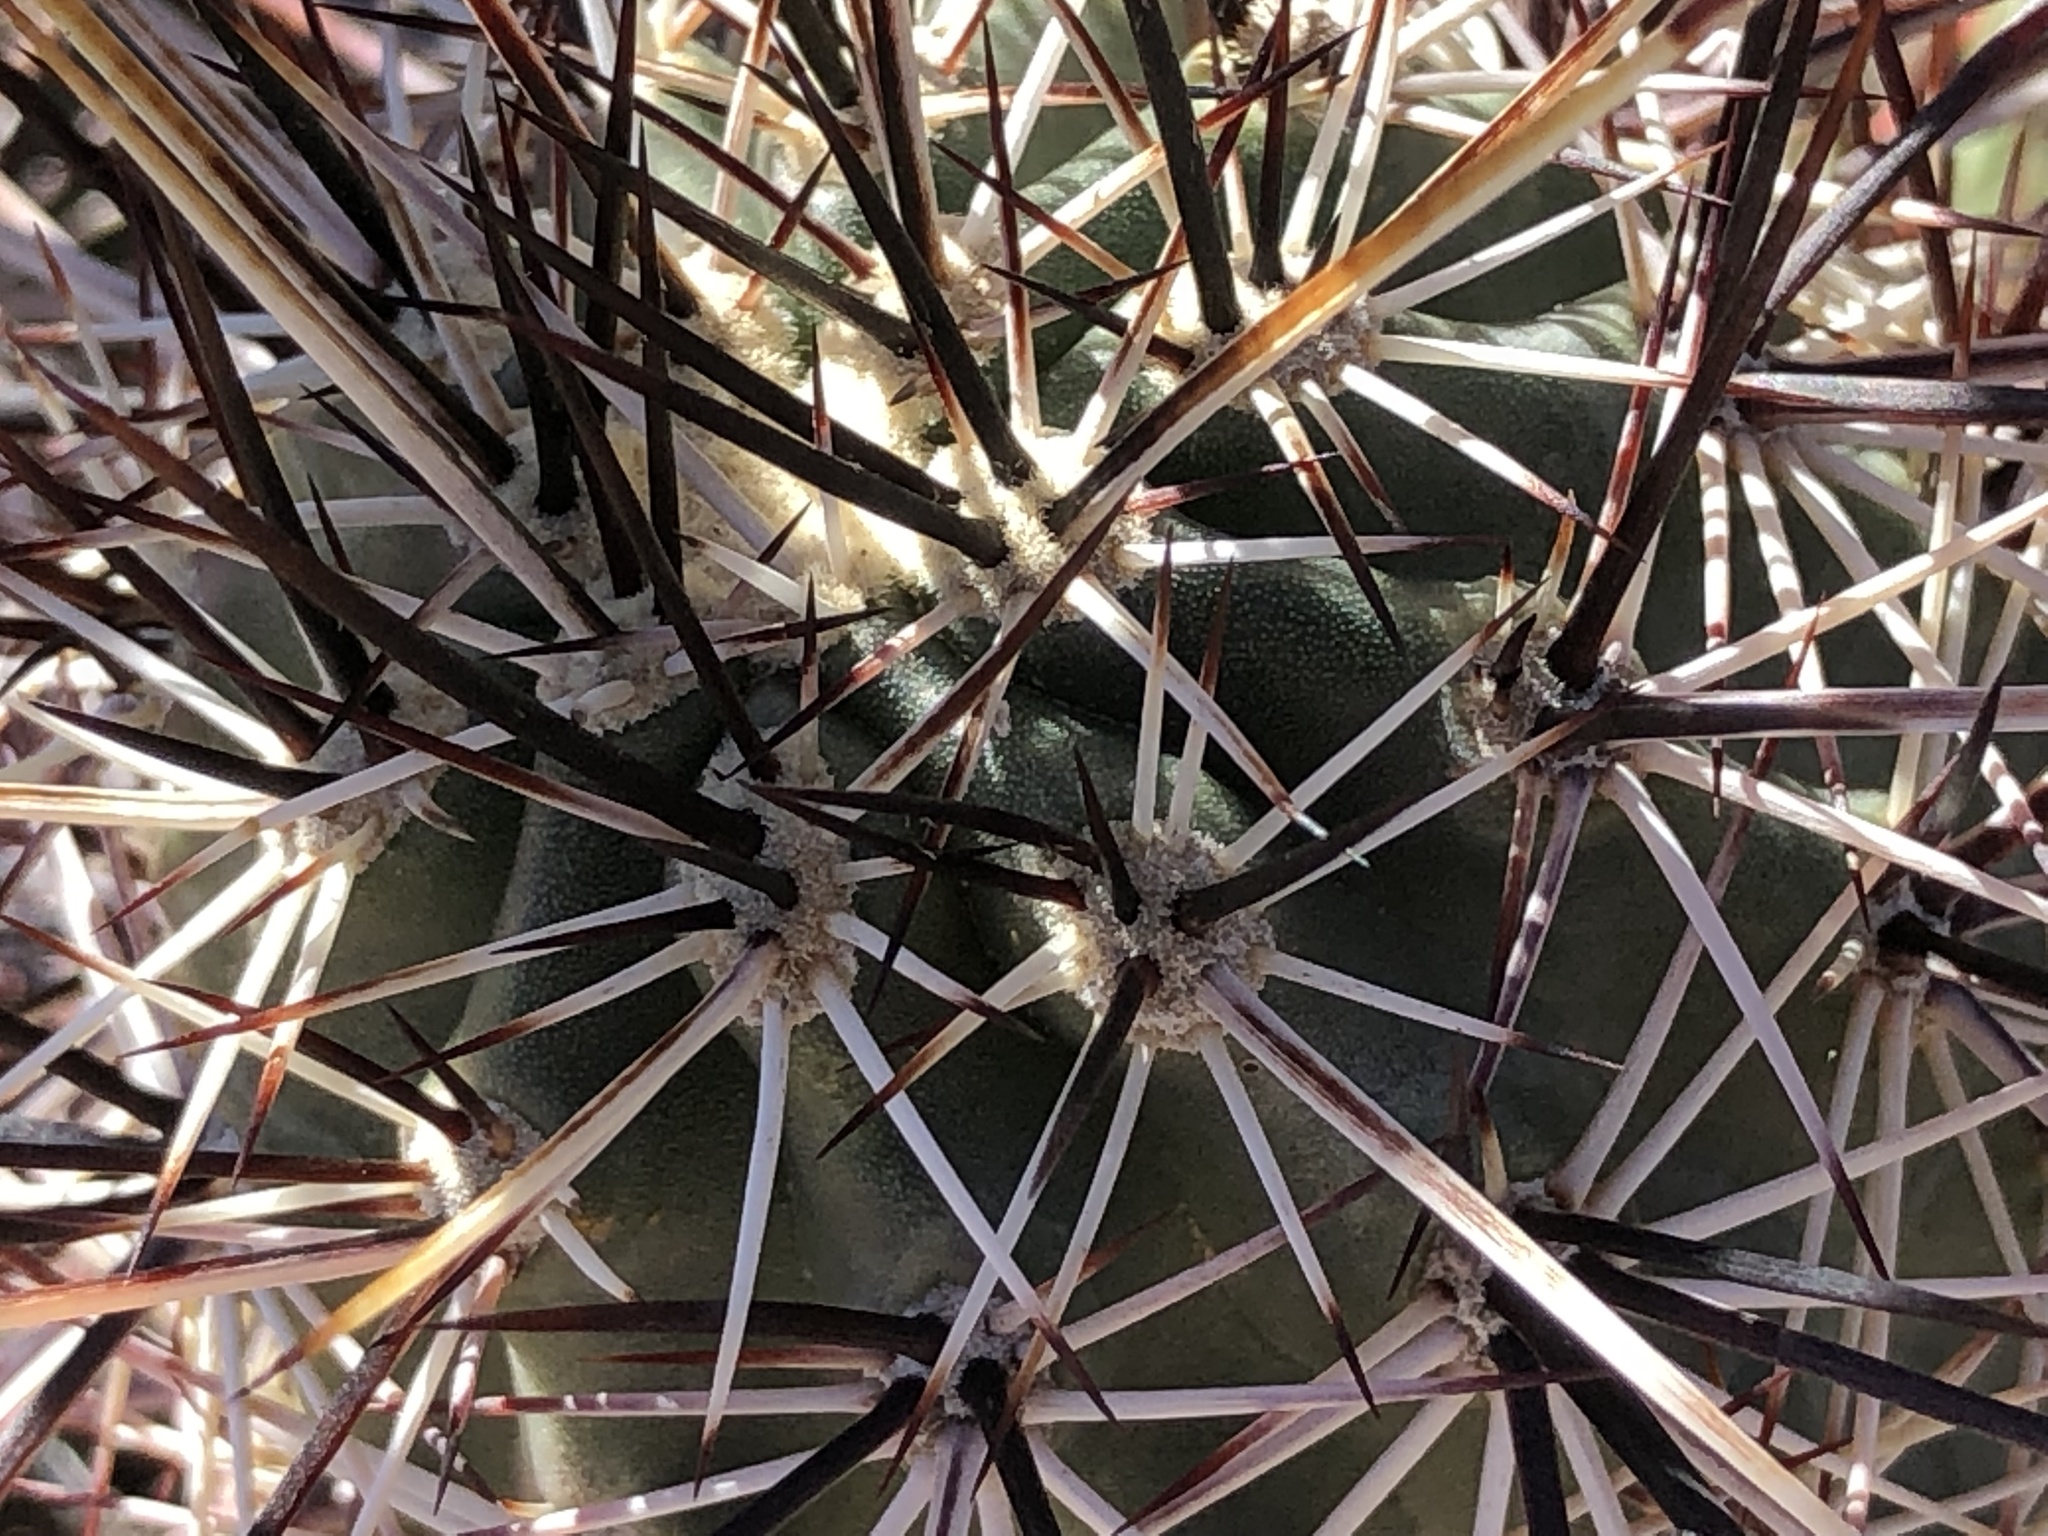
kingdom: Plantae
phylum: Tracheophyta
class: Magnoliopsida
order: Caryophyllales
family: Cactaceae
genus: Echinocereus
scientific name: Echinocereus engelmannii
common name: Engelmann's hedgehog cactus
